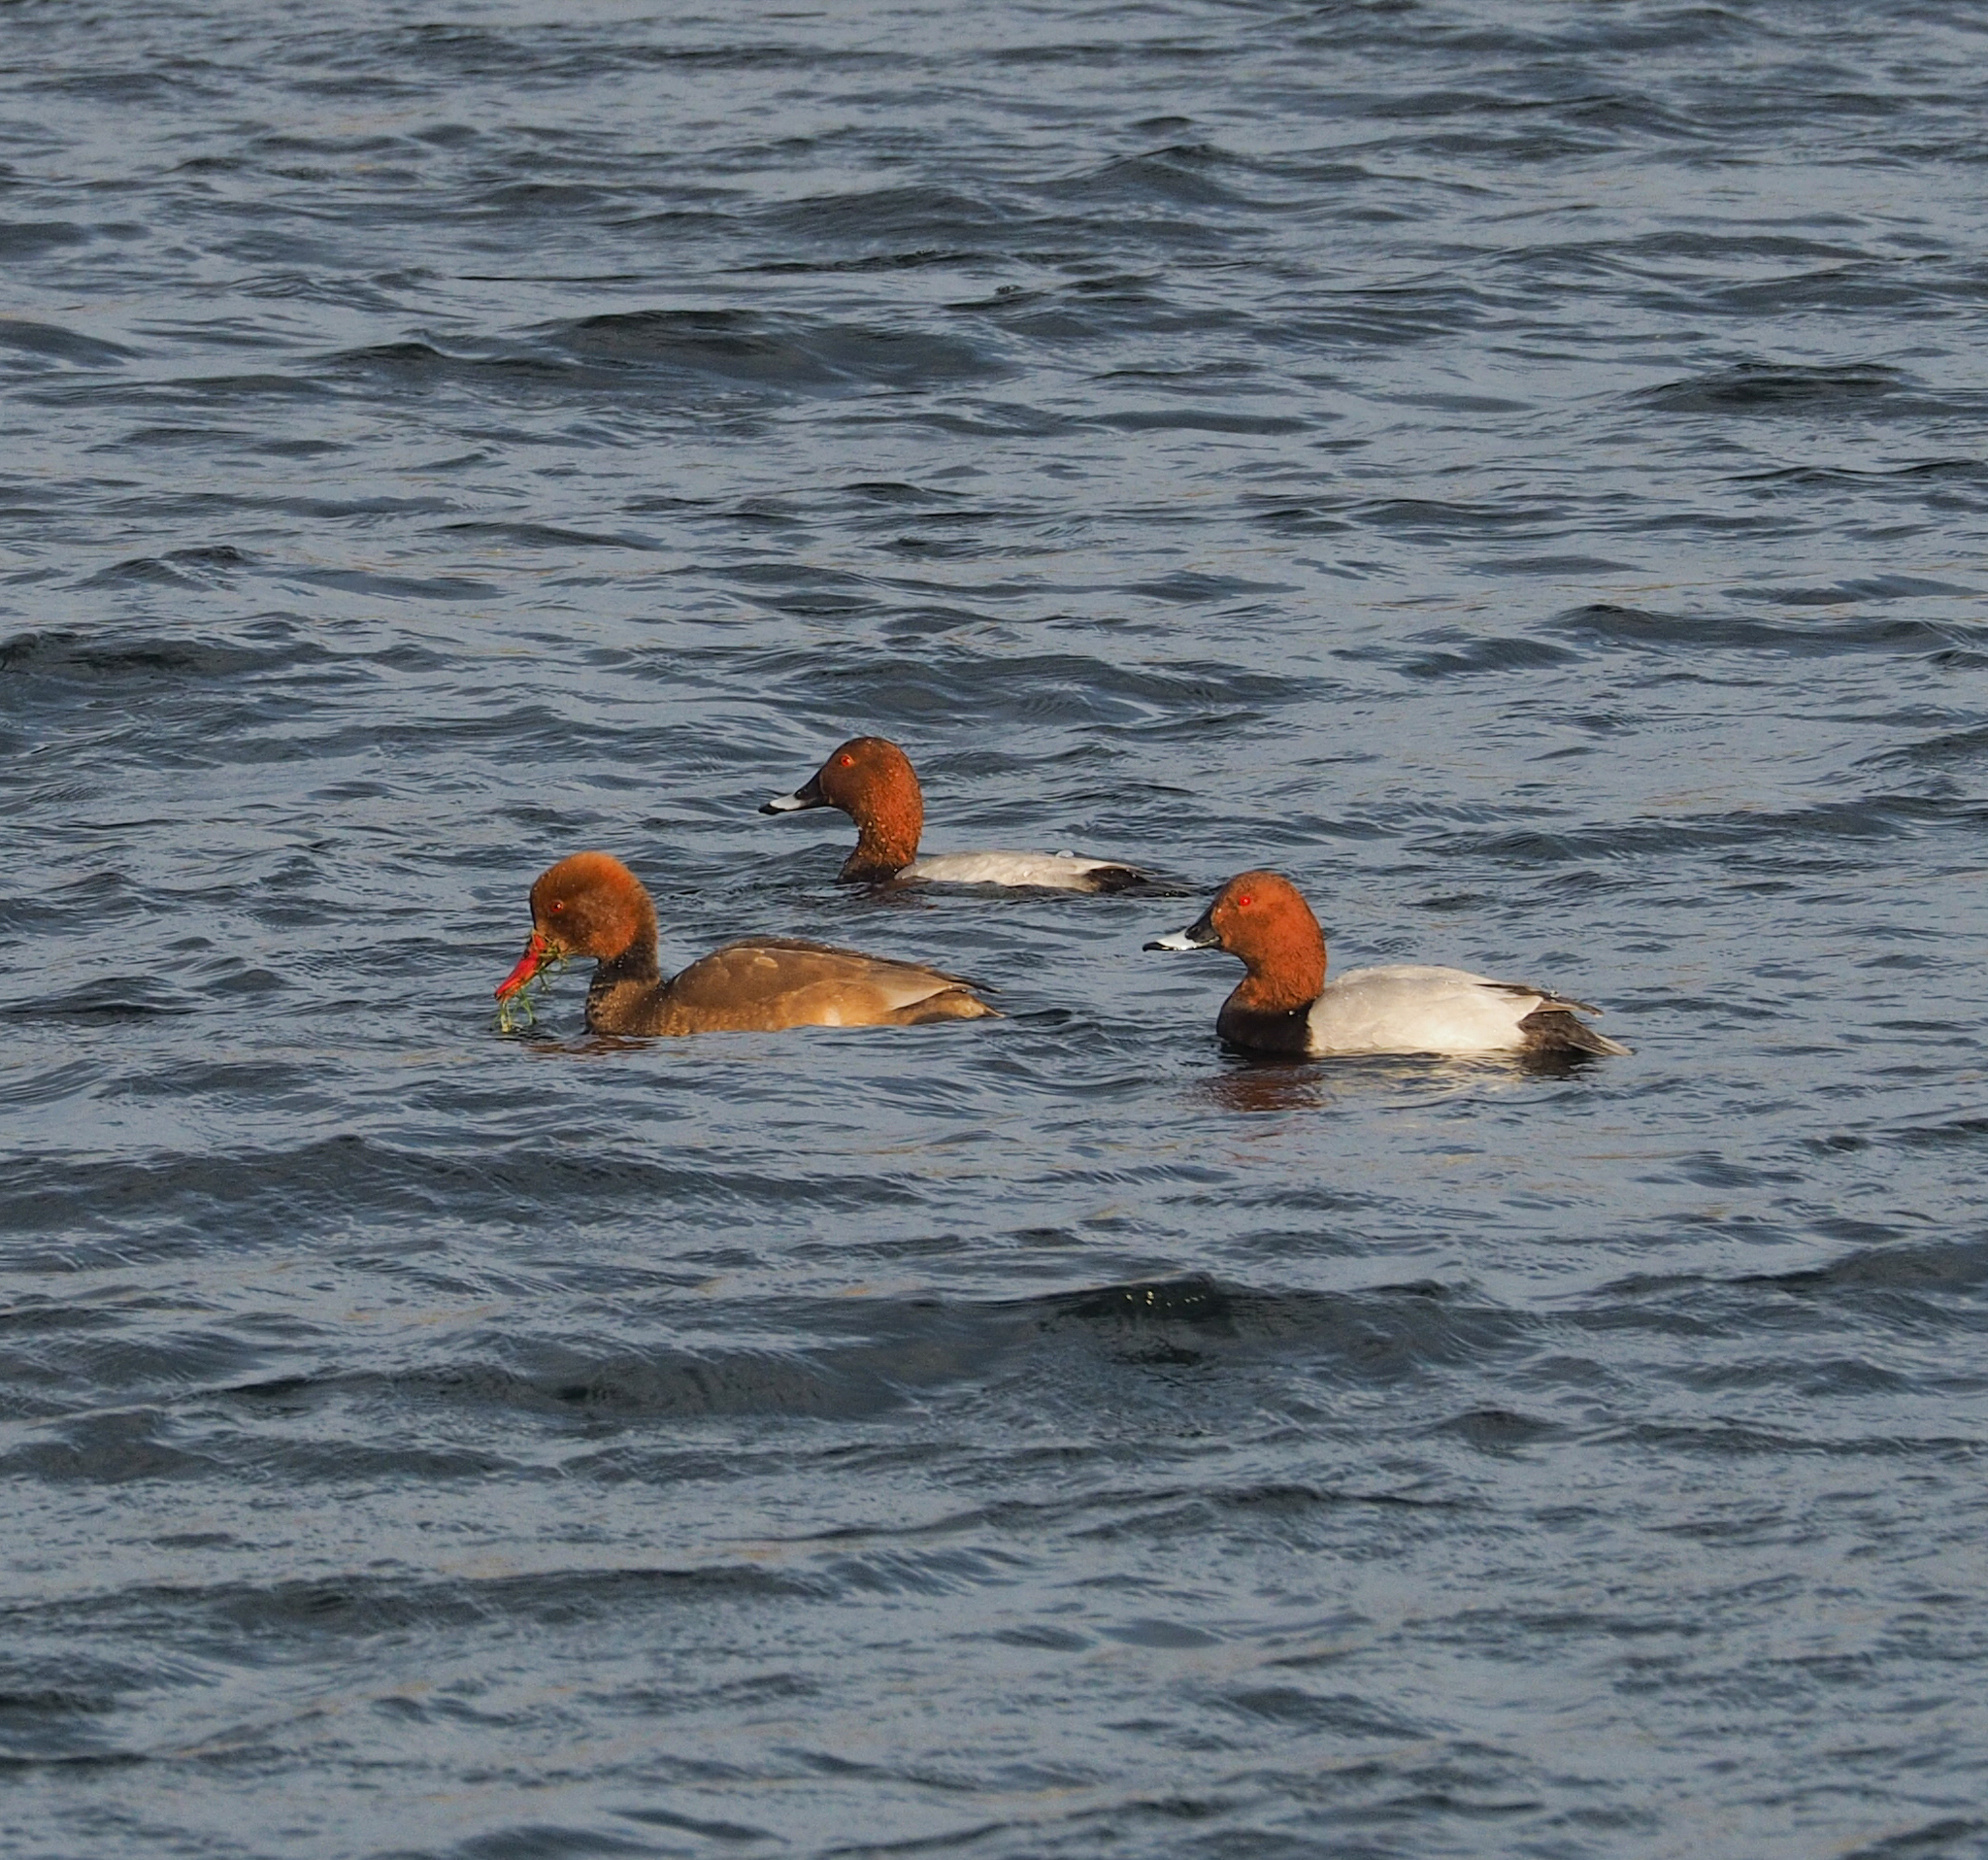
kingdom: Animalia
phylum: Chordata
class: Aves
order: Anseriformes
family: Anatidae
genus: Aythya
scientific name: Aythya ferina
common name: Common pochard
